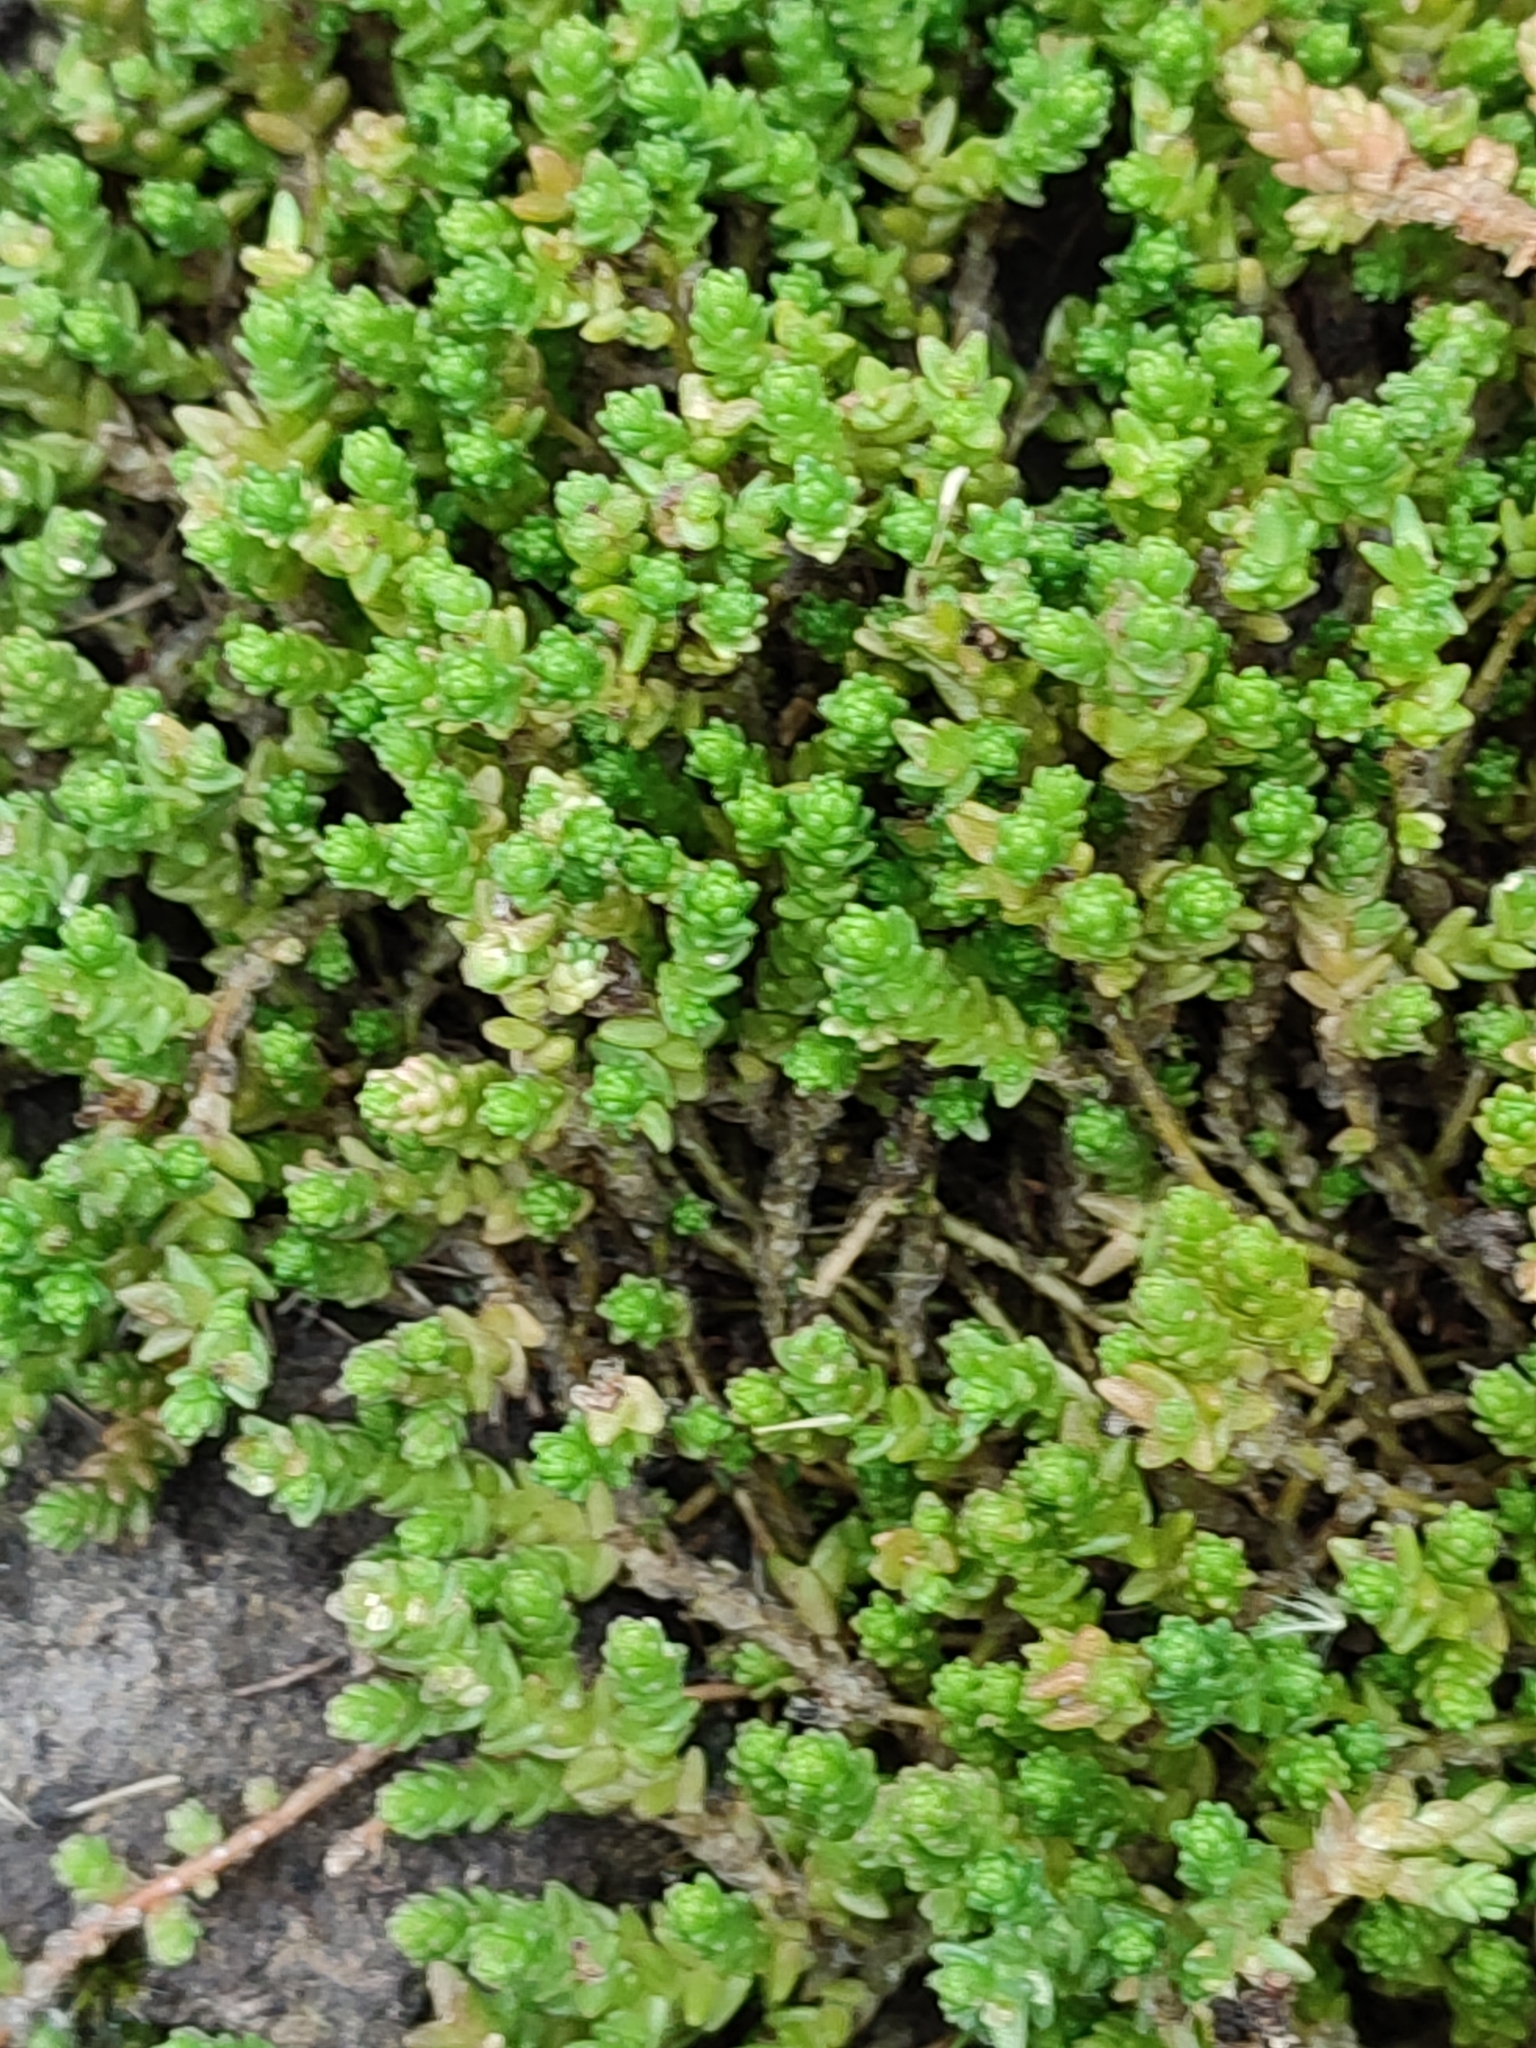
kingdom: Plantae
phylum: Tracheophyta
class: Magnoliopsida
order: Saxifragales
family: Crassulaceae
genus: Sedum
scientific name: Sedum acre
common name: Biting stonecrop
